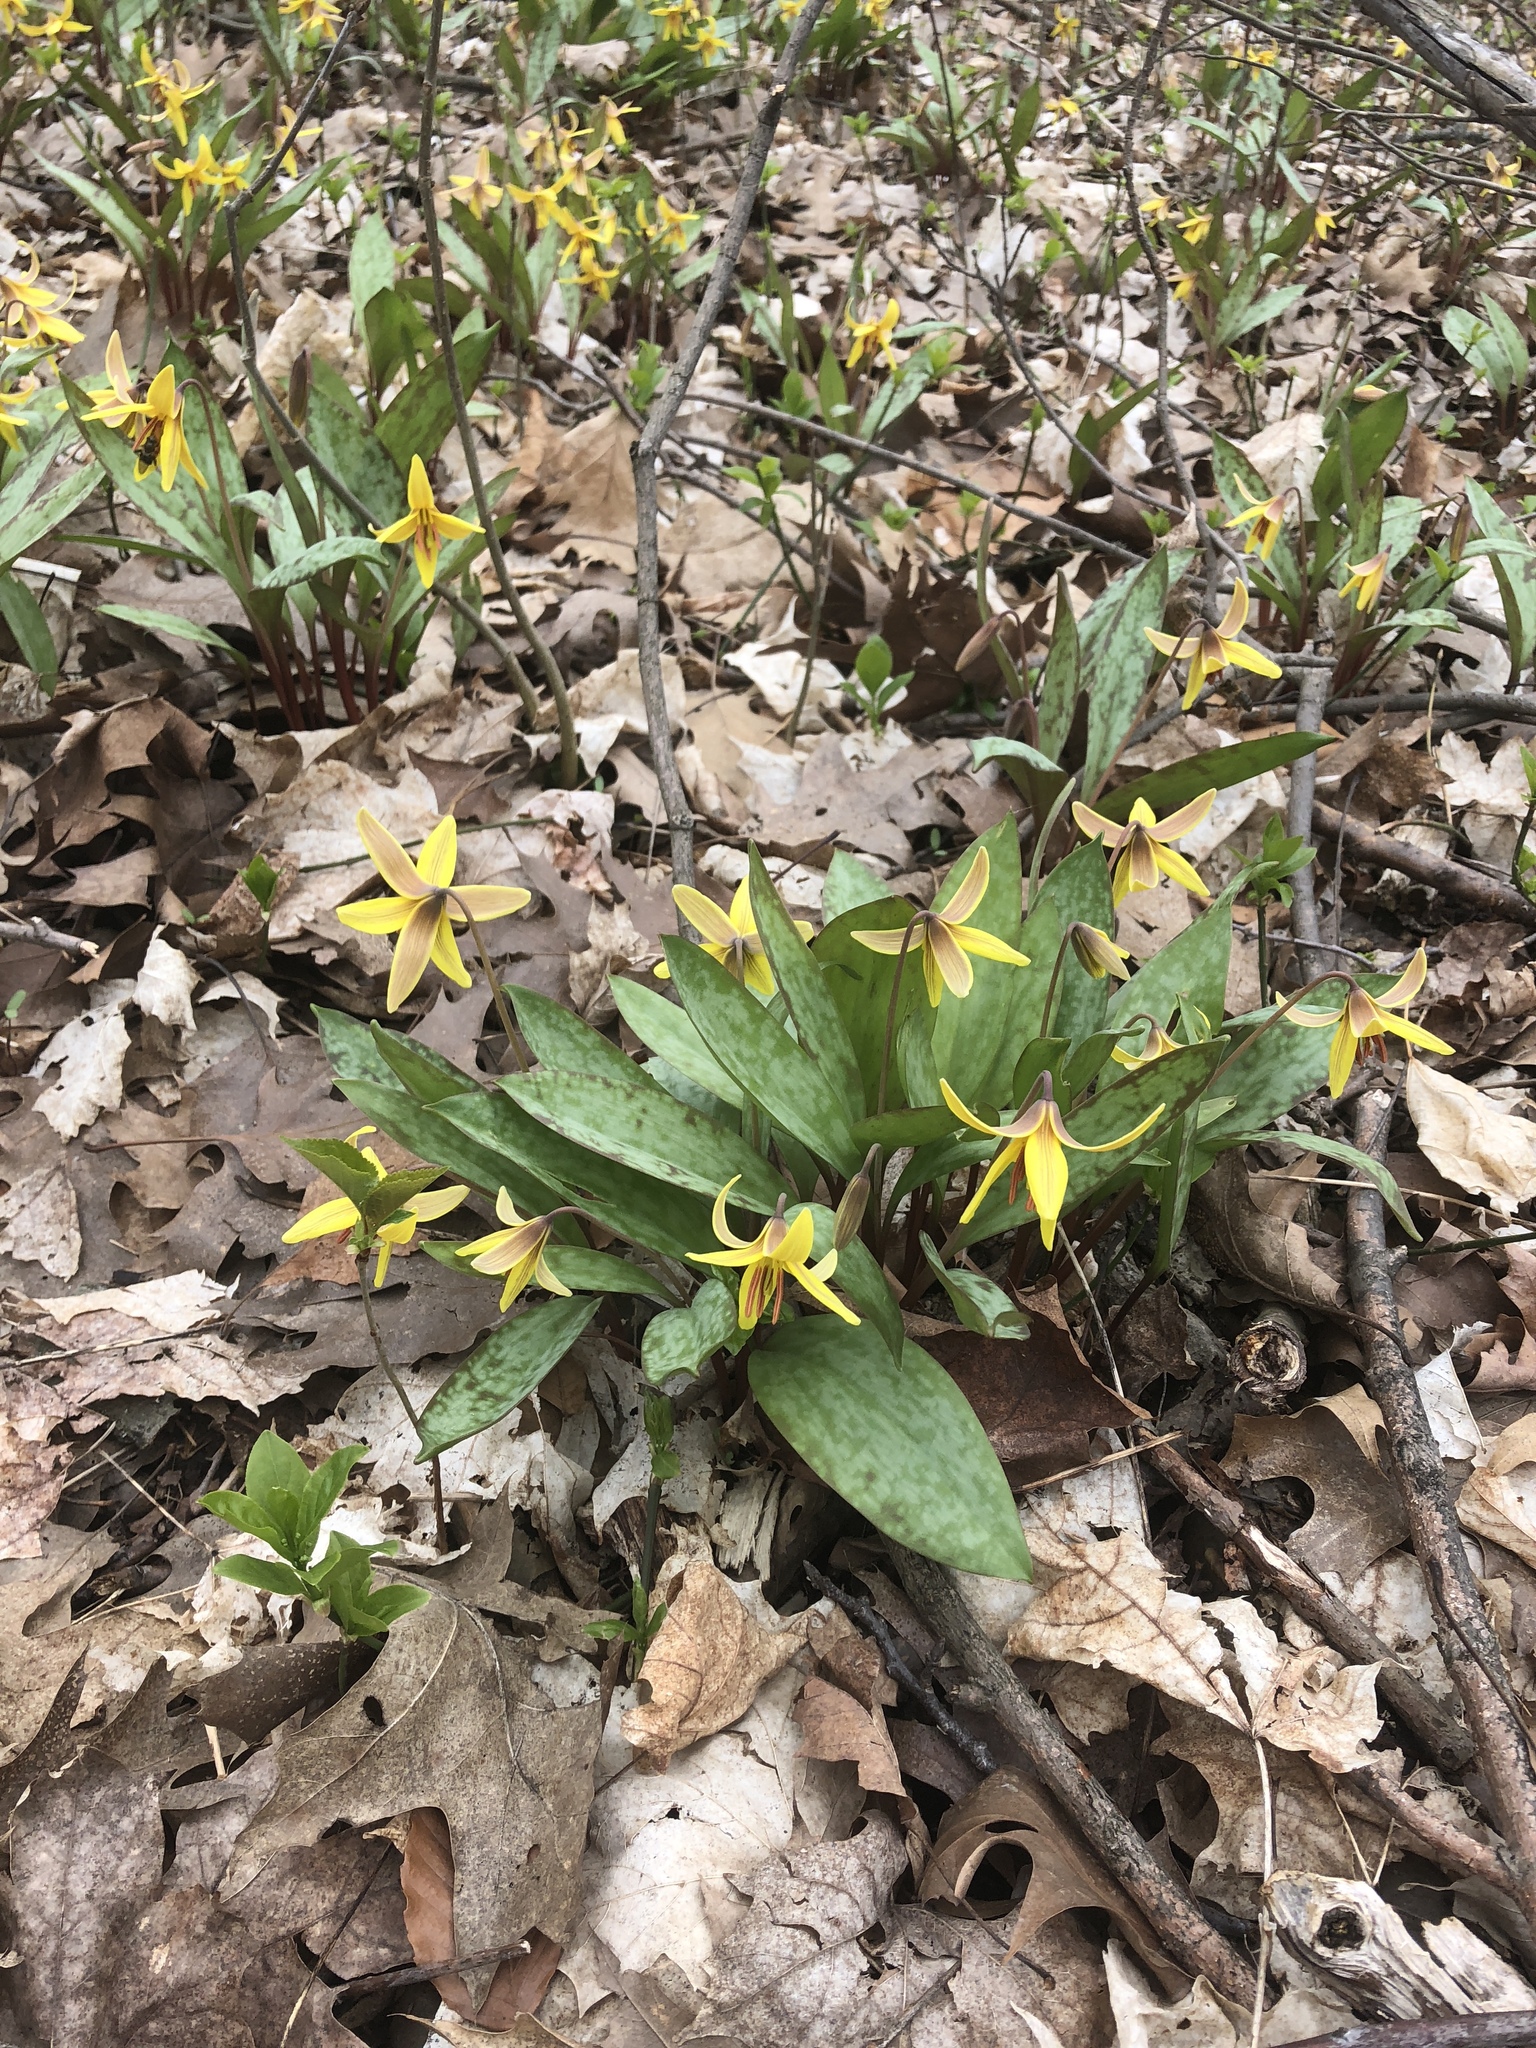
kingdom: Plantae
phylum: Tracheophyta
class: Liliopsida
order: Liliales
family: Liliaceae
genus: Erythronium
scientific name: Erythronium americanum
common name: Yellow adder's-tongue
